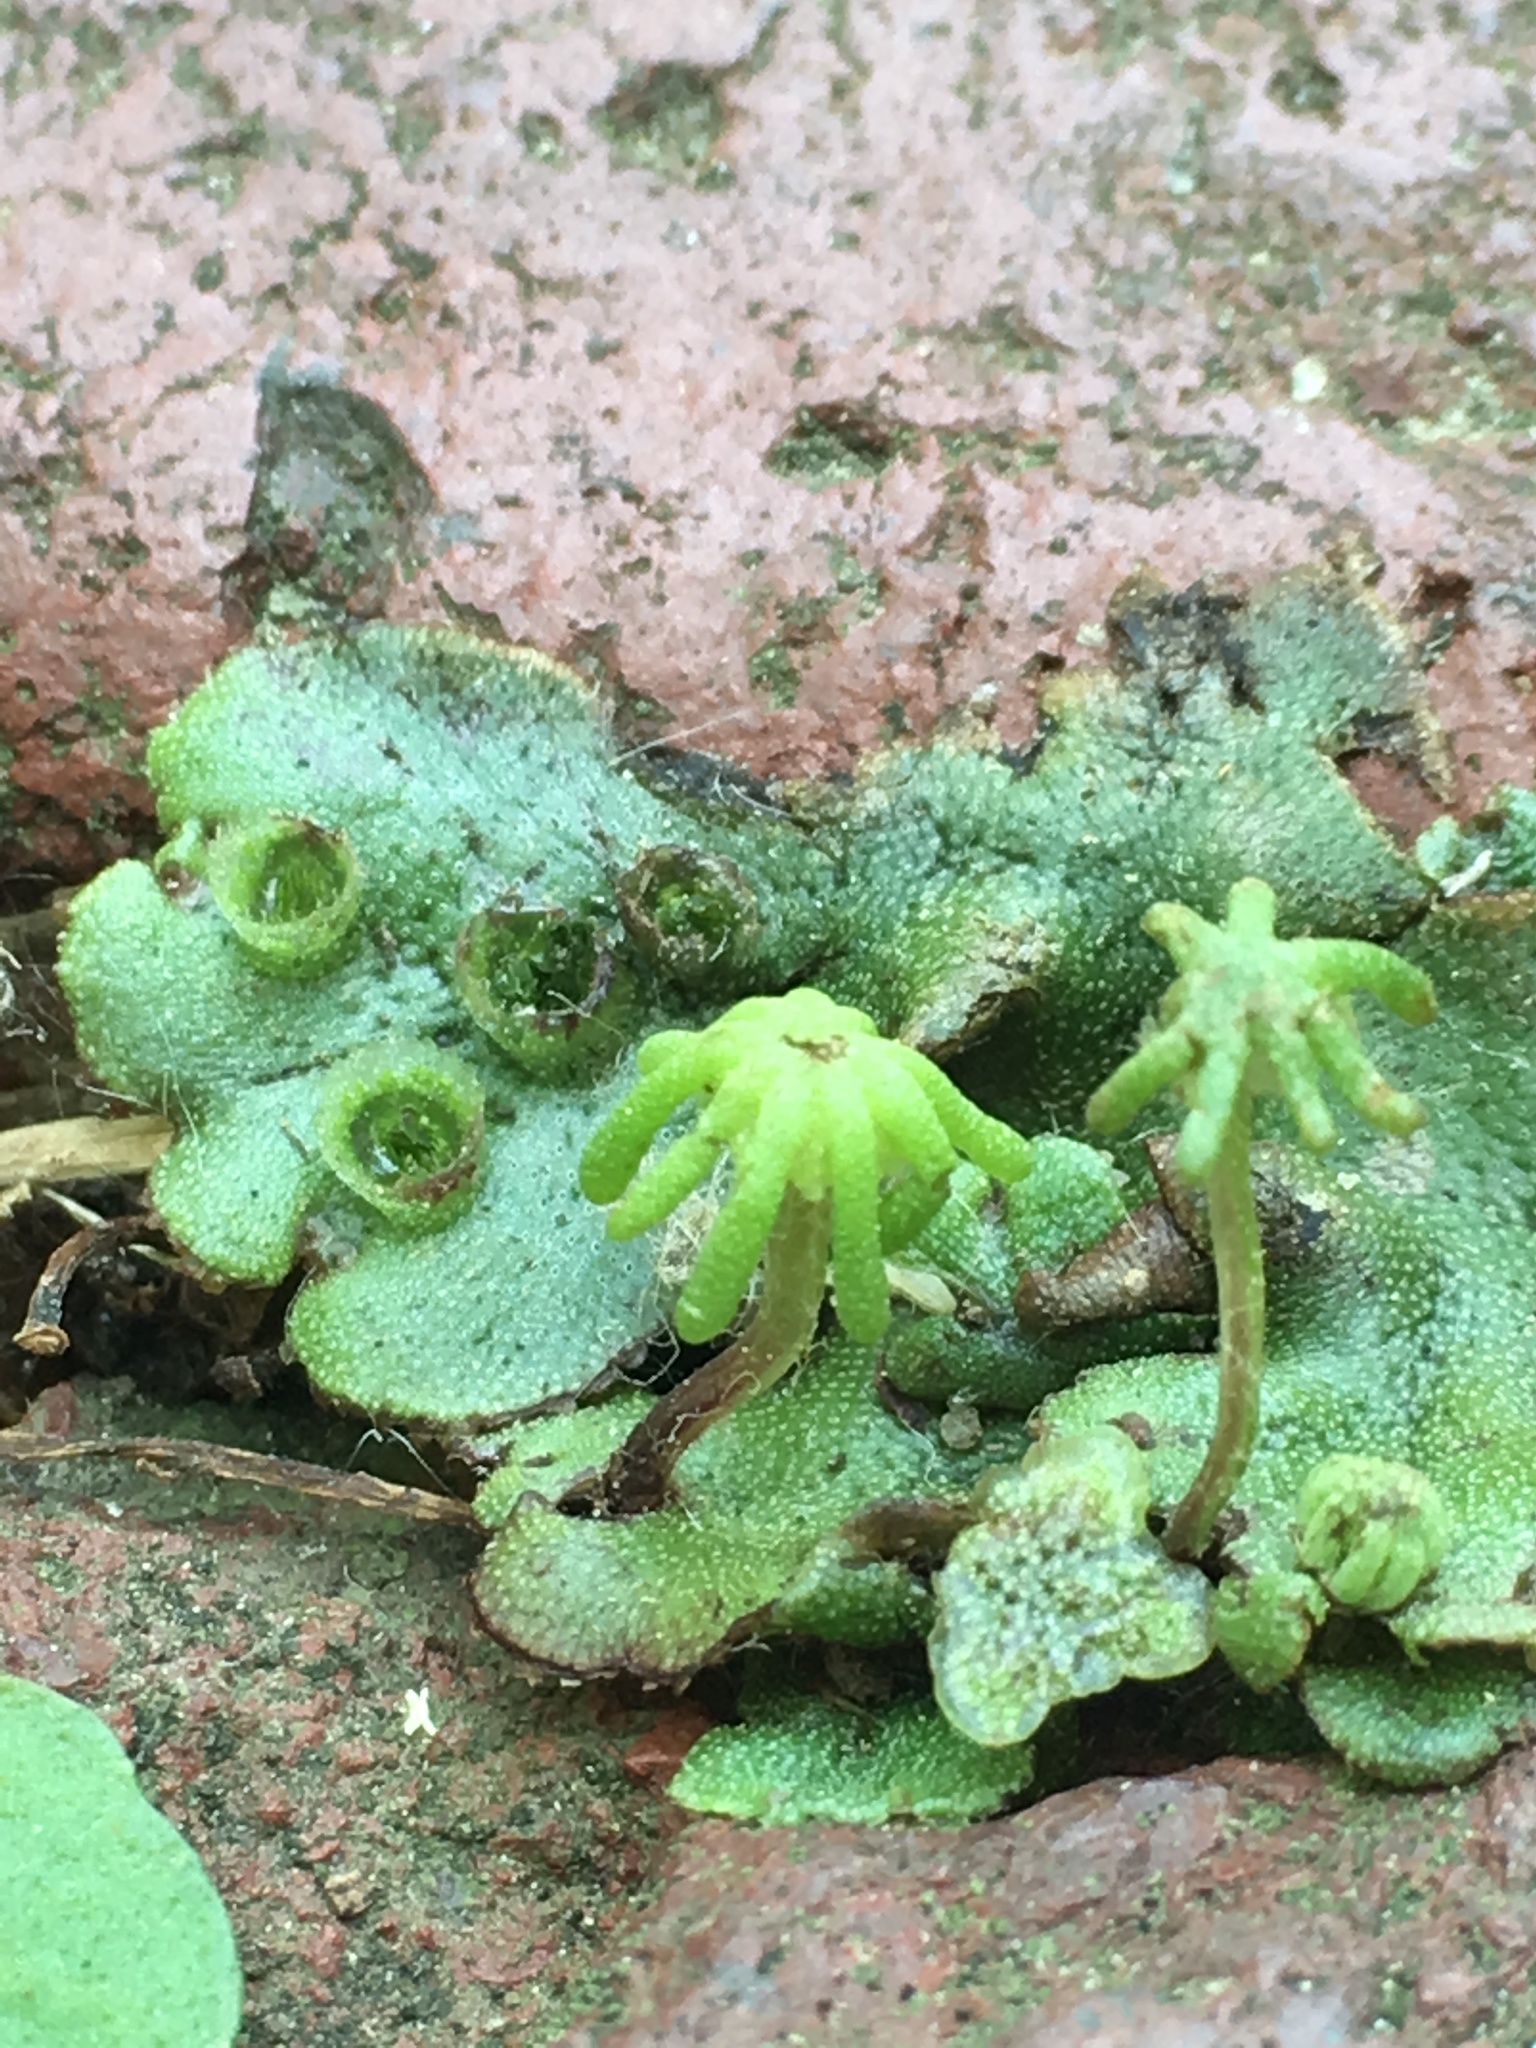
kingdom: Plantae
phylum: Marchantiophyta
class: Marchantiopsida
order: Marchantiales
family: Marchantiaceae
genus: Marchantia
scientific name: Marchantia polymorpha
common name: Common liverwort
